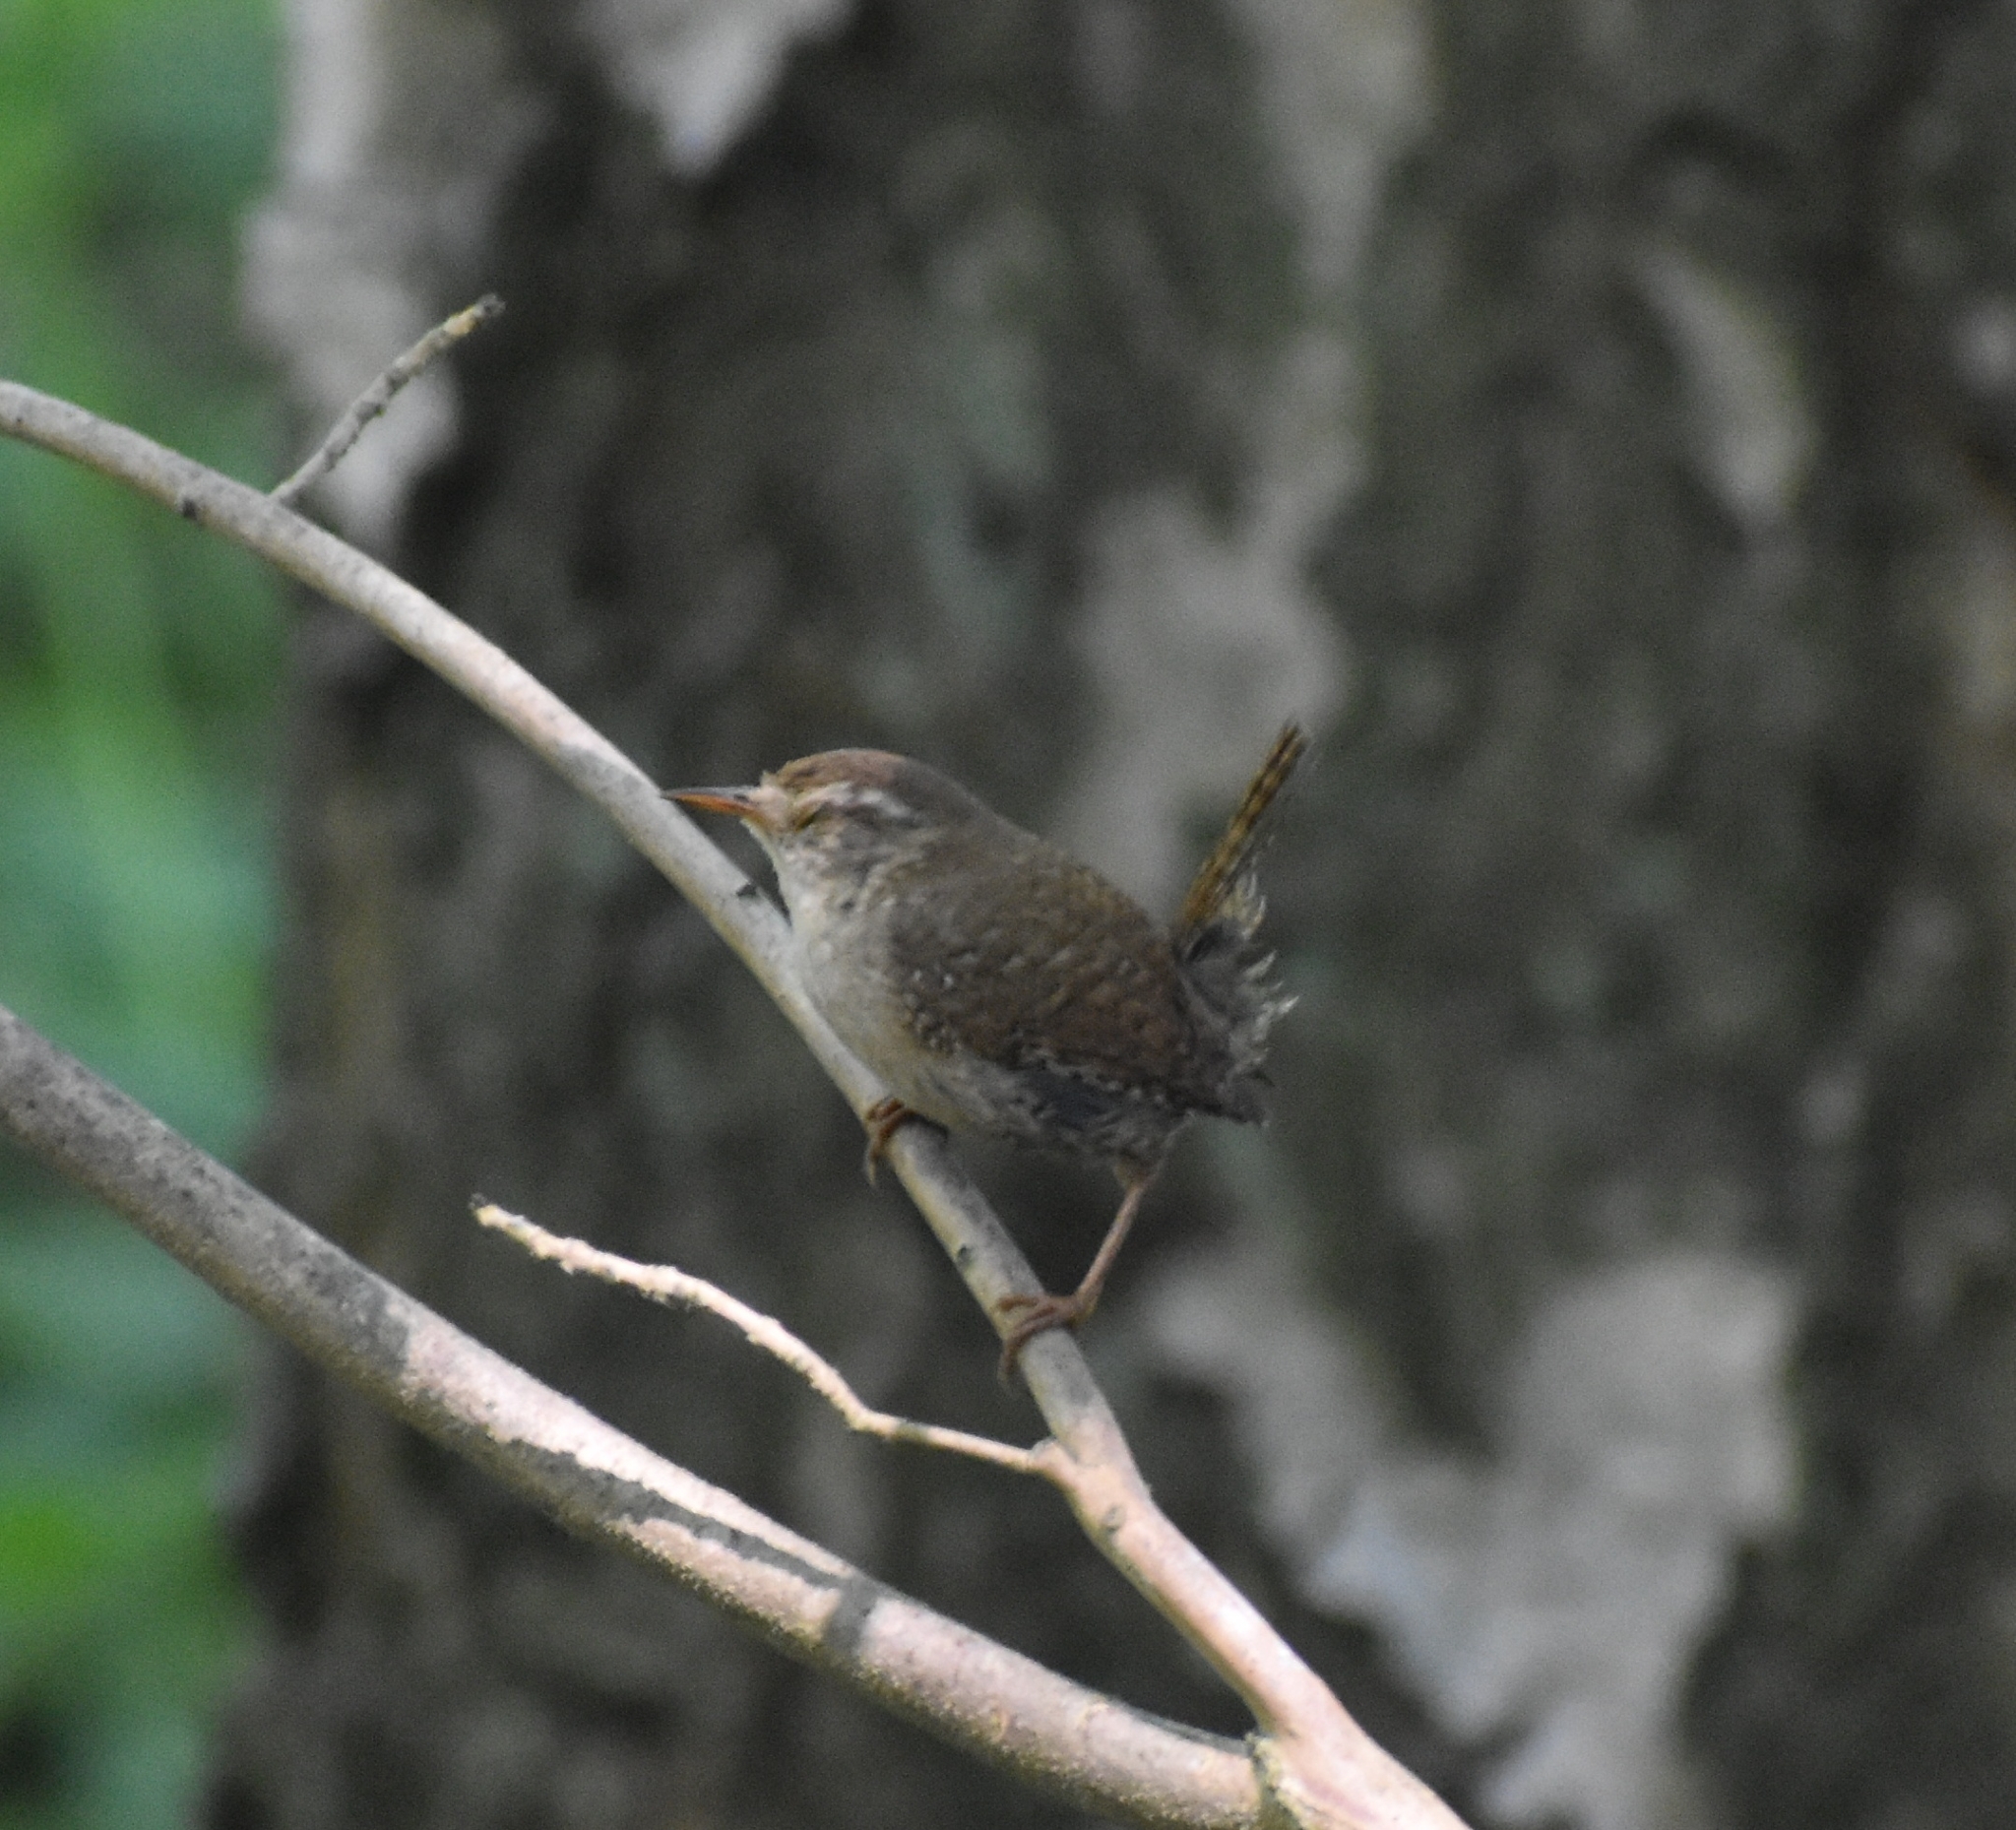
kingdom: Animalia
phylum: Chordata
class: Aves
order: Passeriformes
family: Troglodytidae
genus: Troglodytes
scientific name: Troglodytes troglodytes
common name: Eurasian wren
